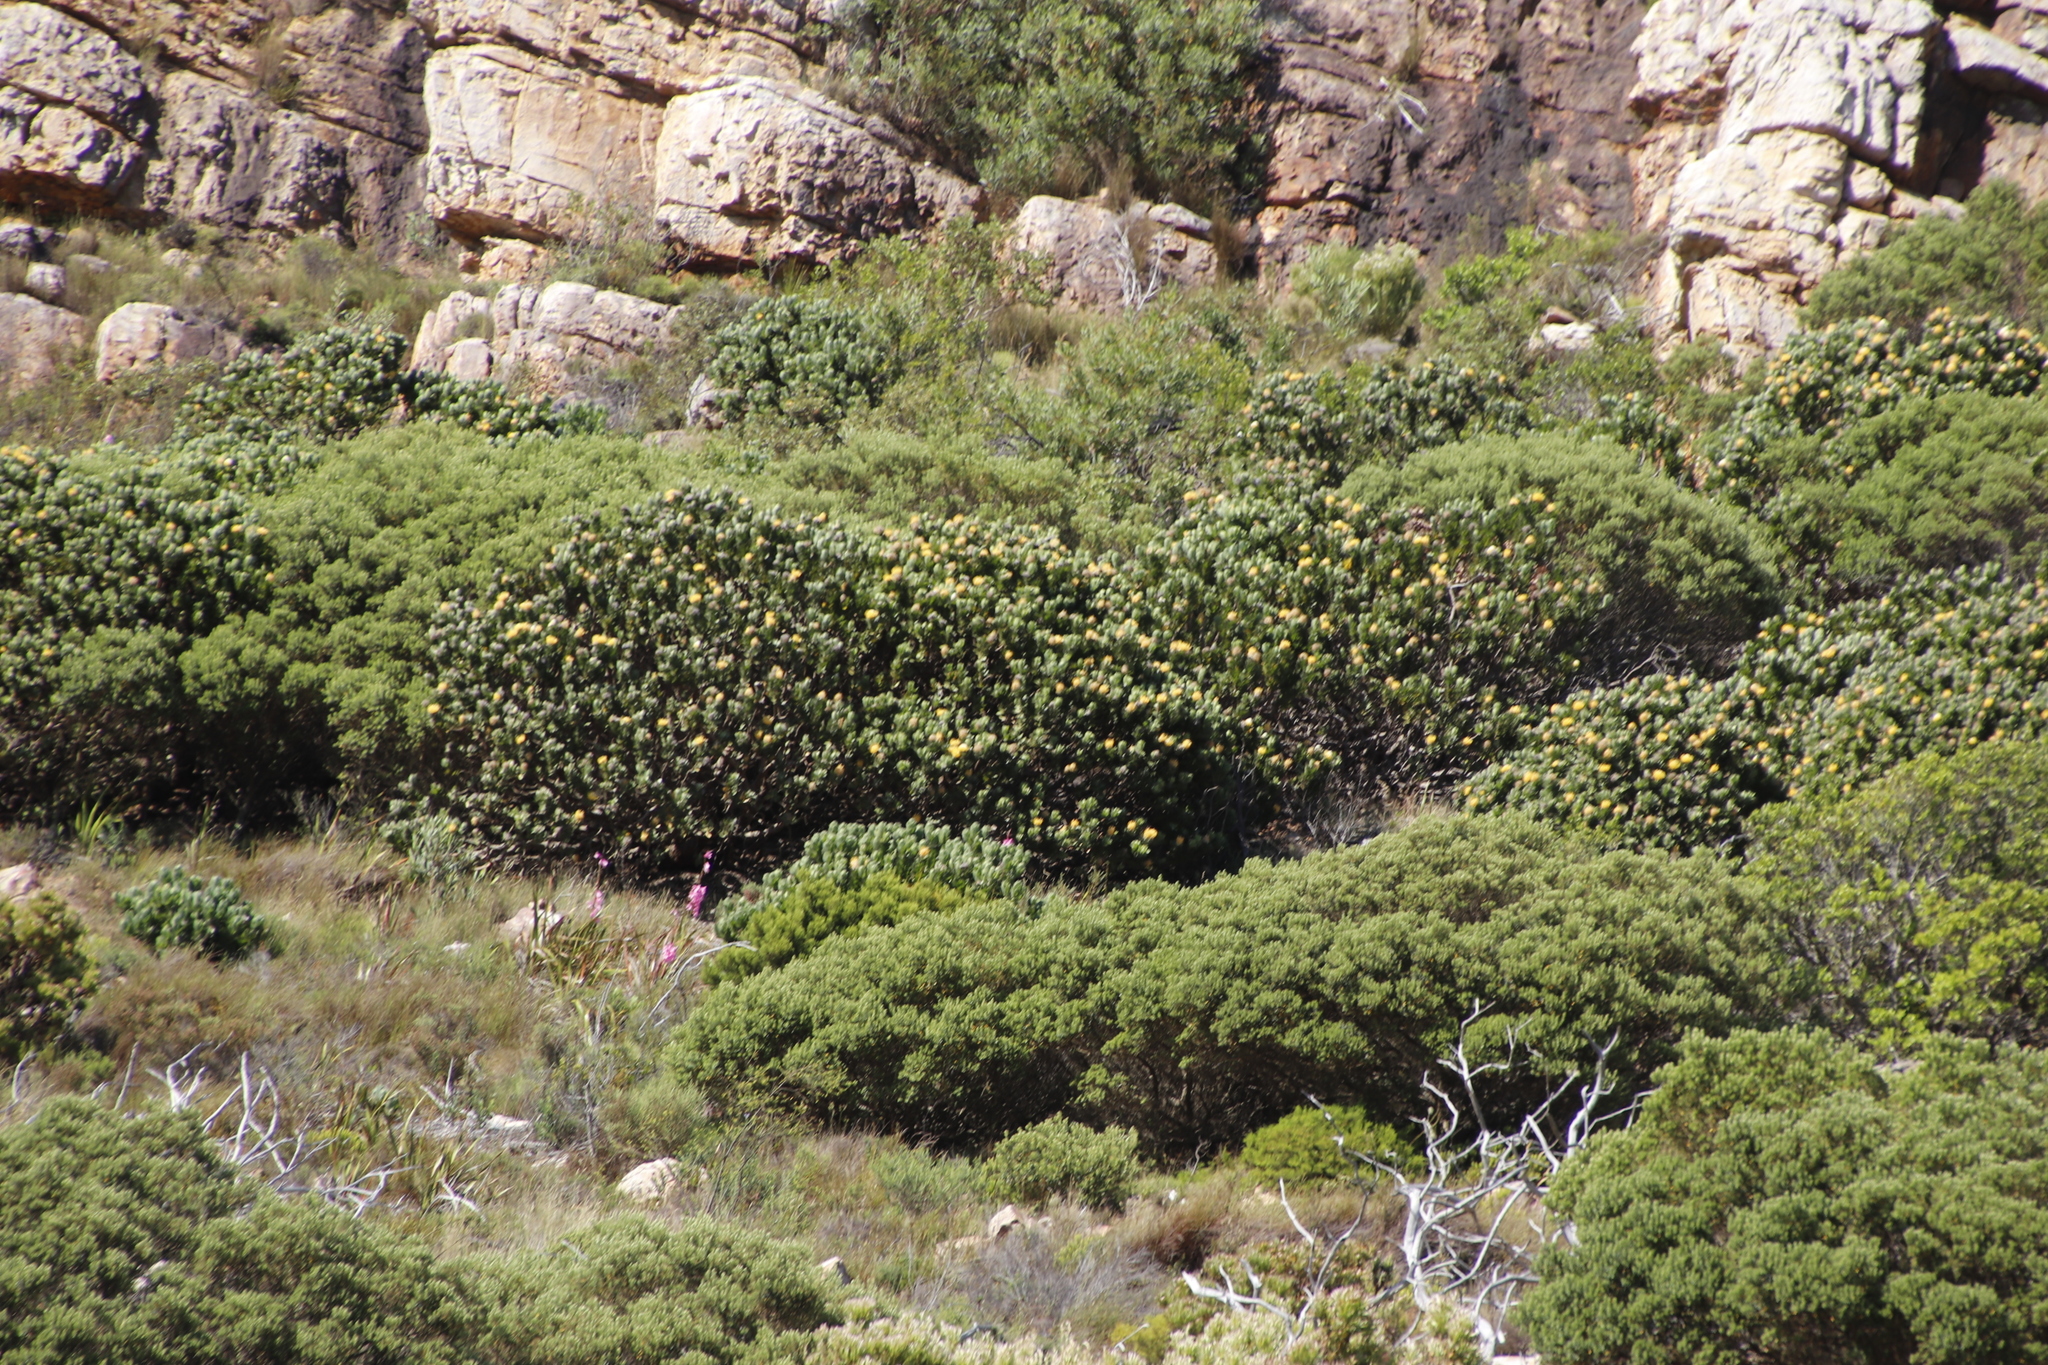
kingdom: Plantae
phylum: Tracheophyta
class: Magnoliopsida
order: Proteales
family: Proteaceae
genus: Leucospermum
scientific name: Leucospermum conocarpodendron
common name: Tree pincushion
